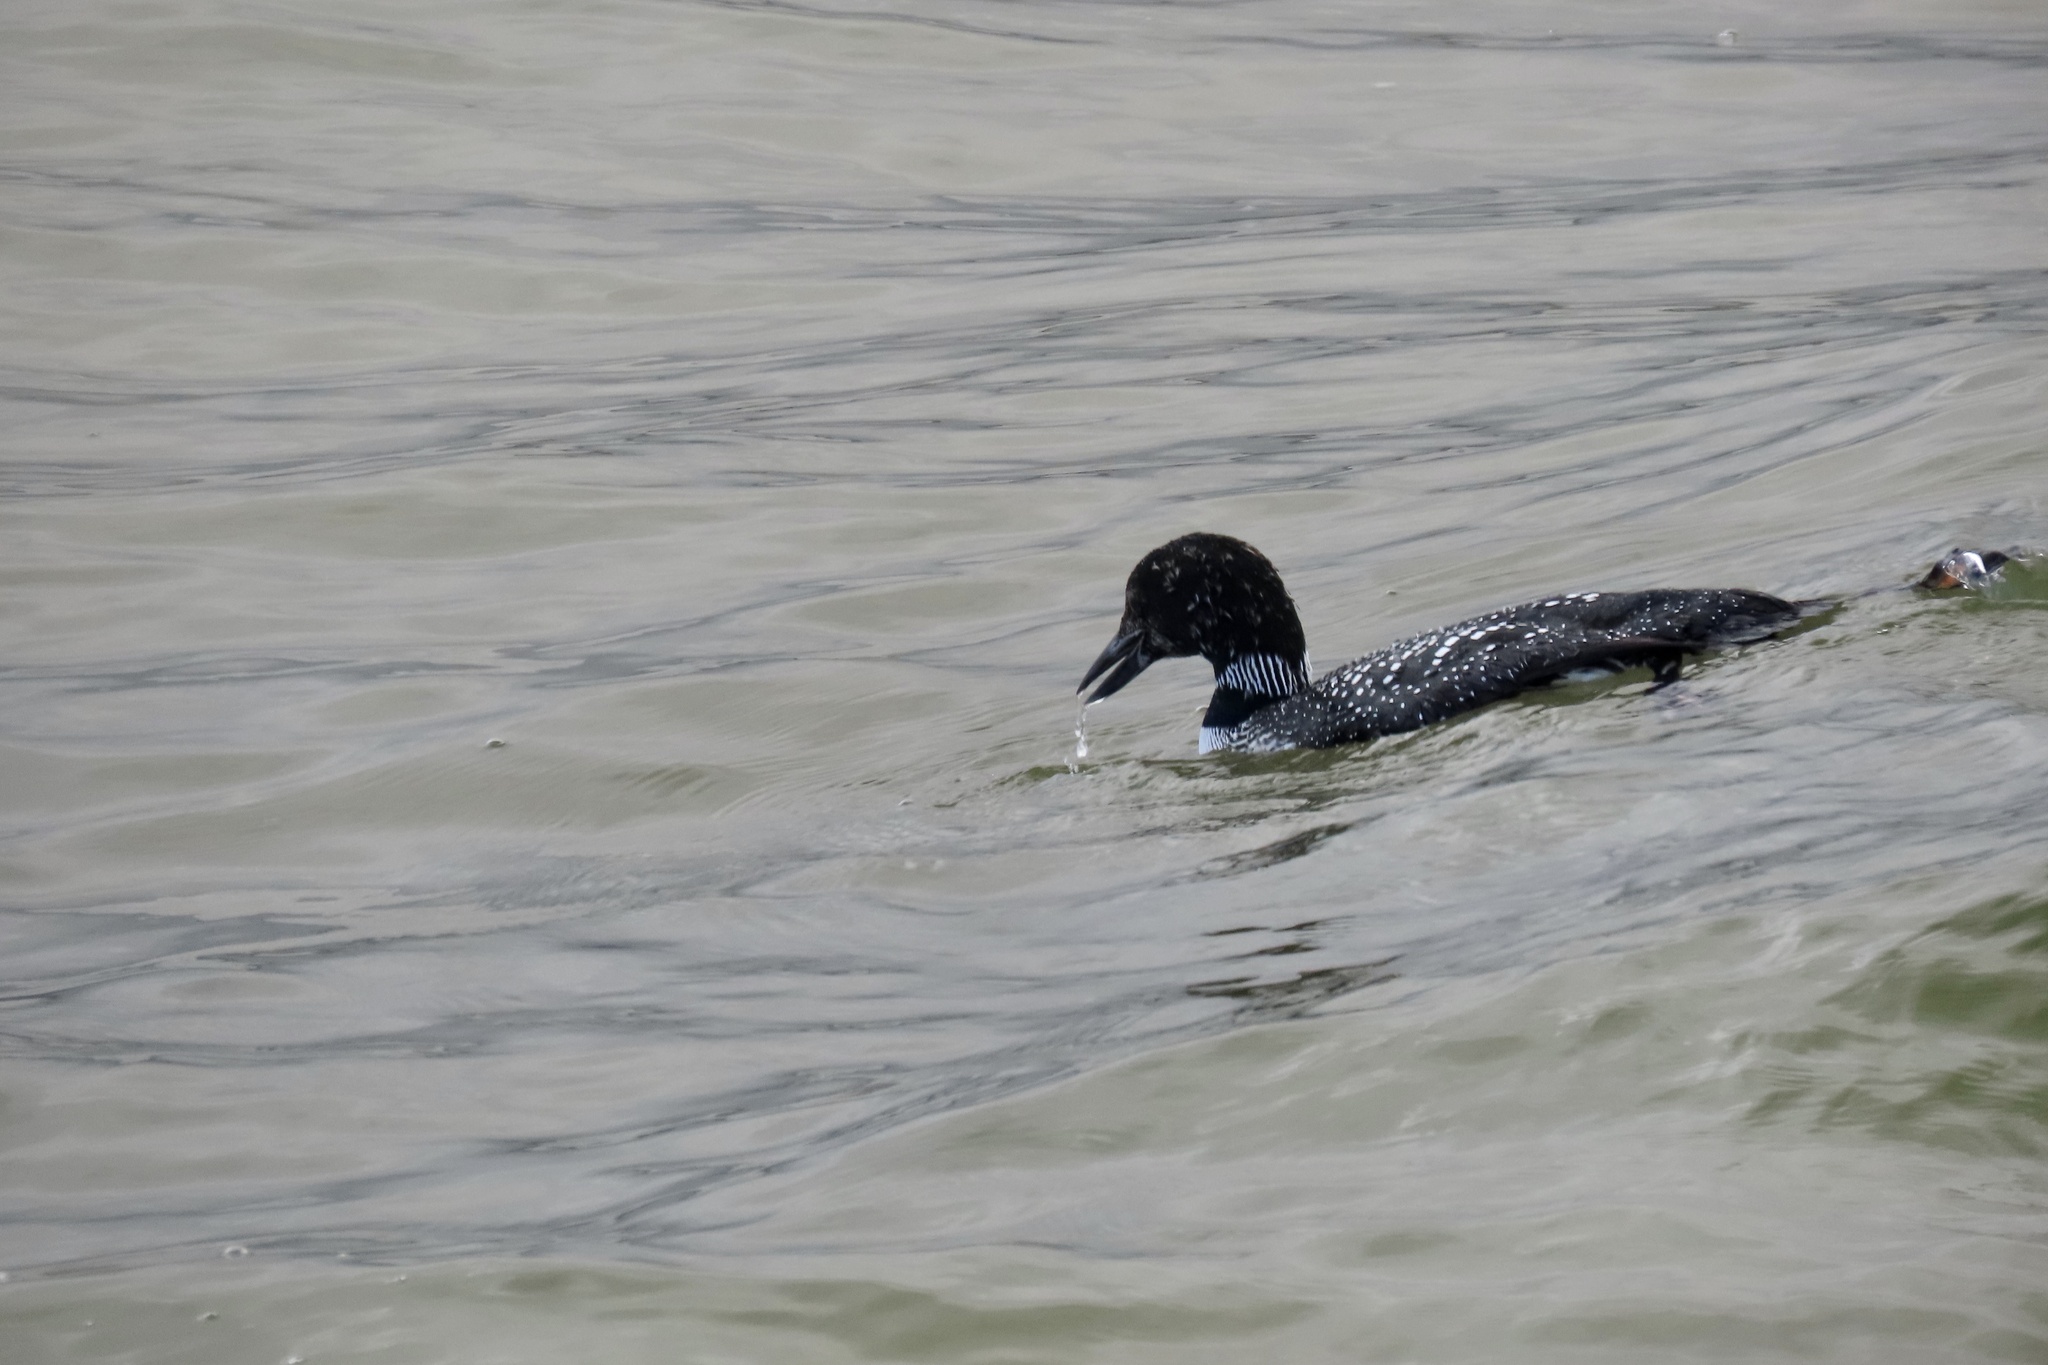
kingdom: Animalia
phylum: Chordata
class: Aves
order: Gaviiformes
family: Gaviidae
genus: Gavia
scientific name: Gavia immer
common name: Common loon
